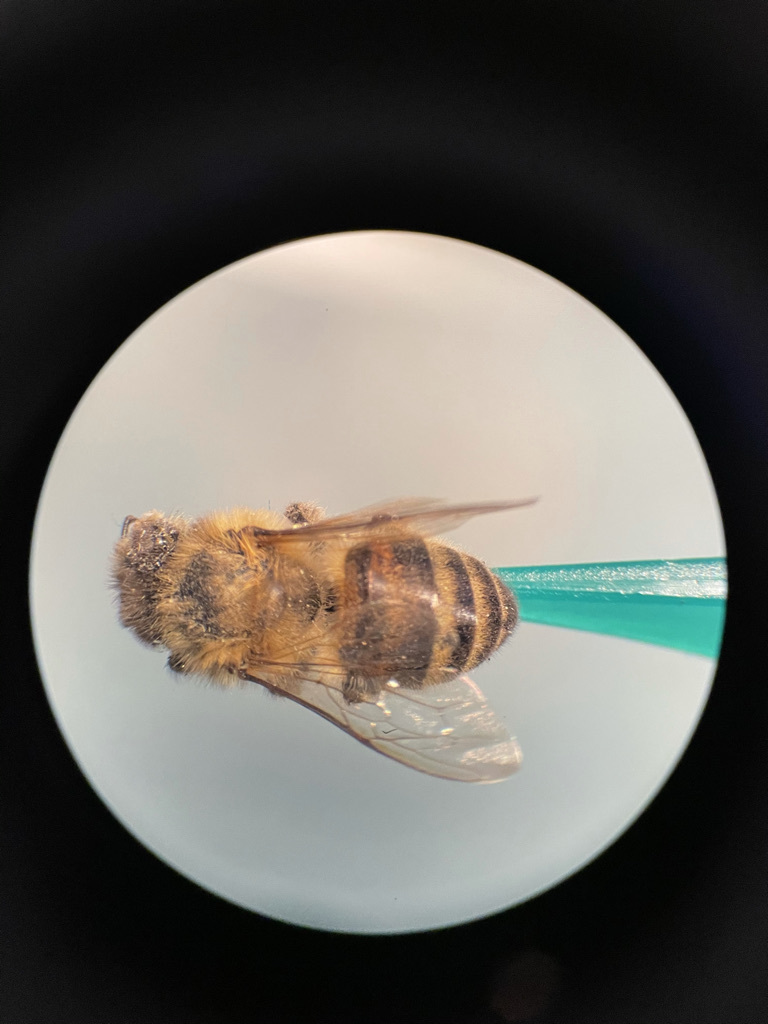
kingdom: Animalia
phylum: Arthropoda
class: Insecta
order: Hymenoptera
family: Apidae
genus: Apis
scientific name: Apis mellifera
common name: Honey bee
